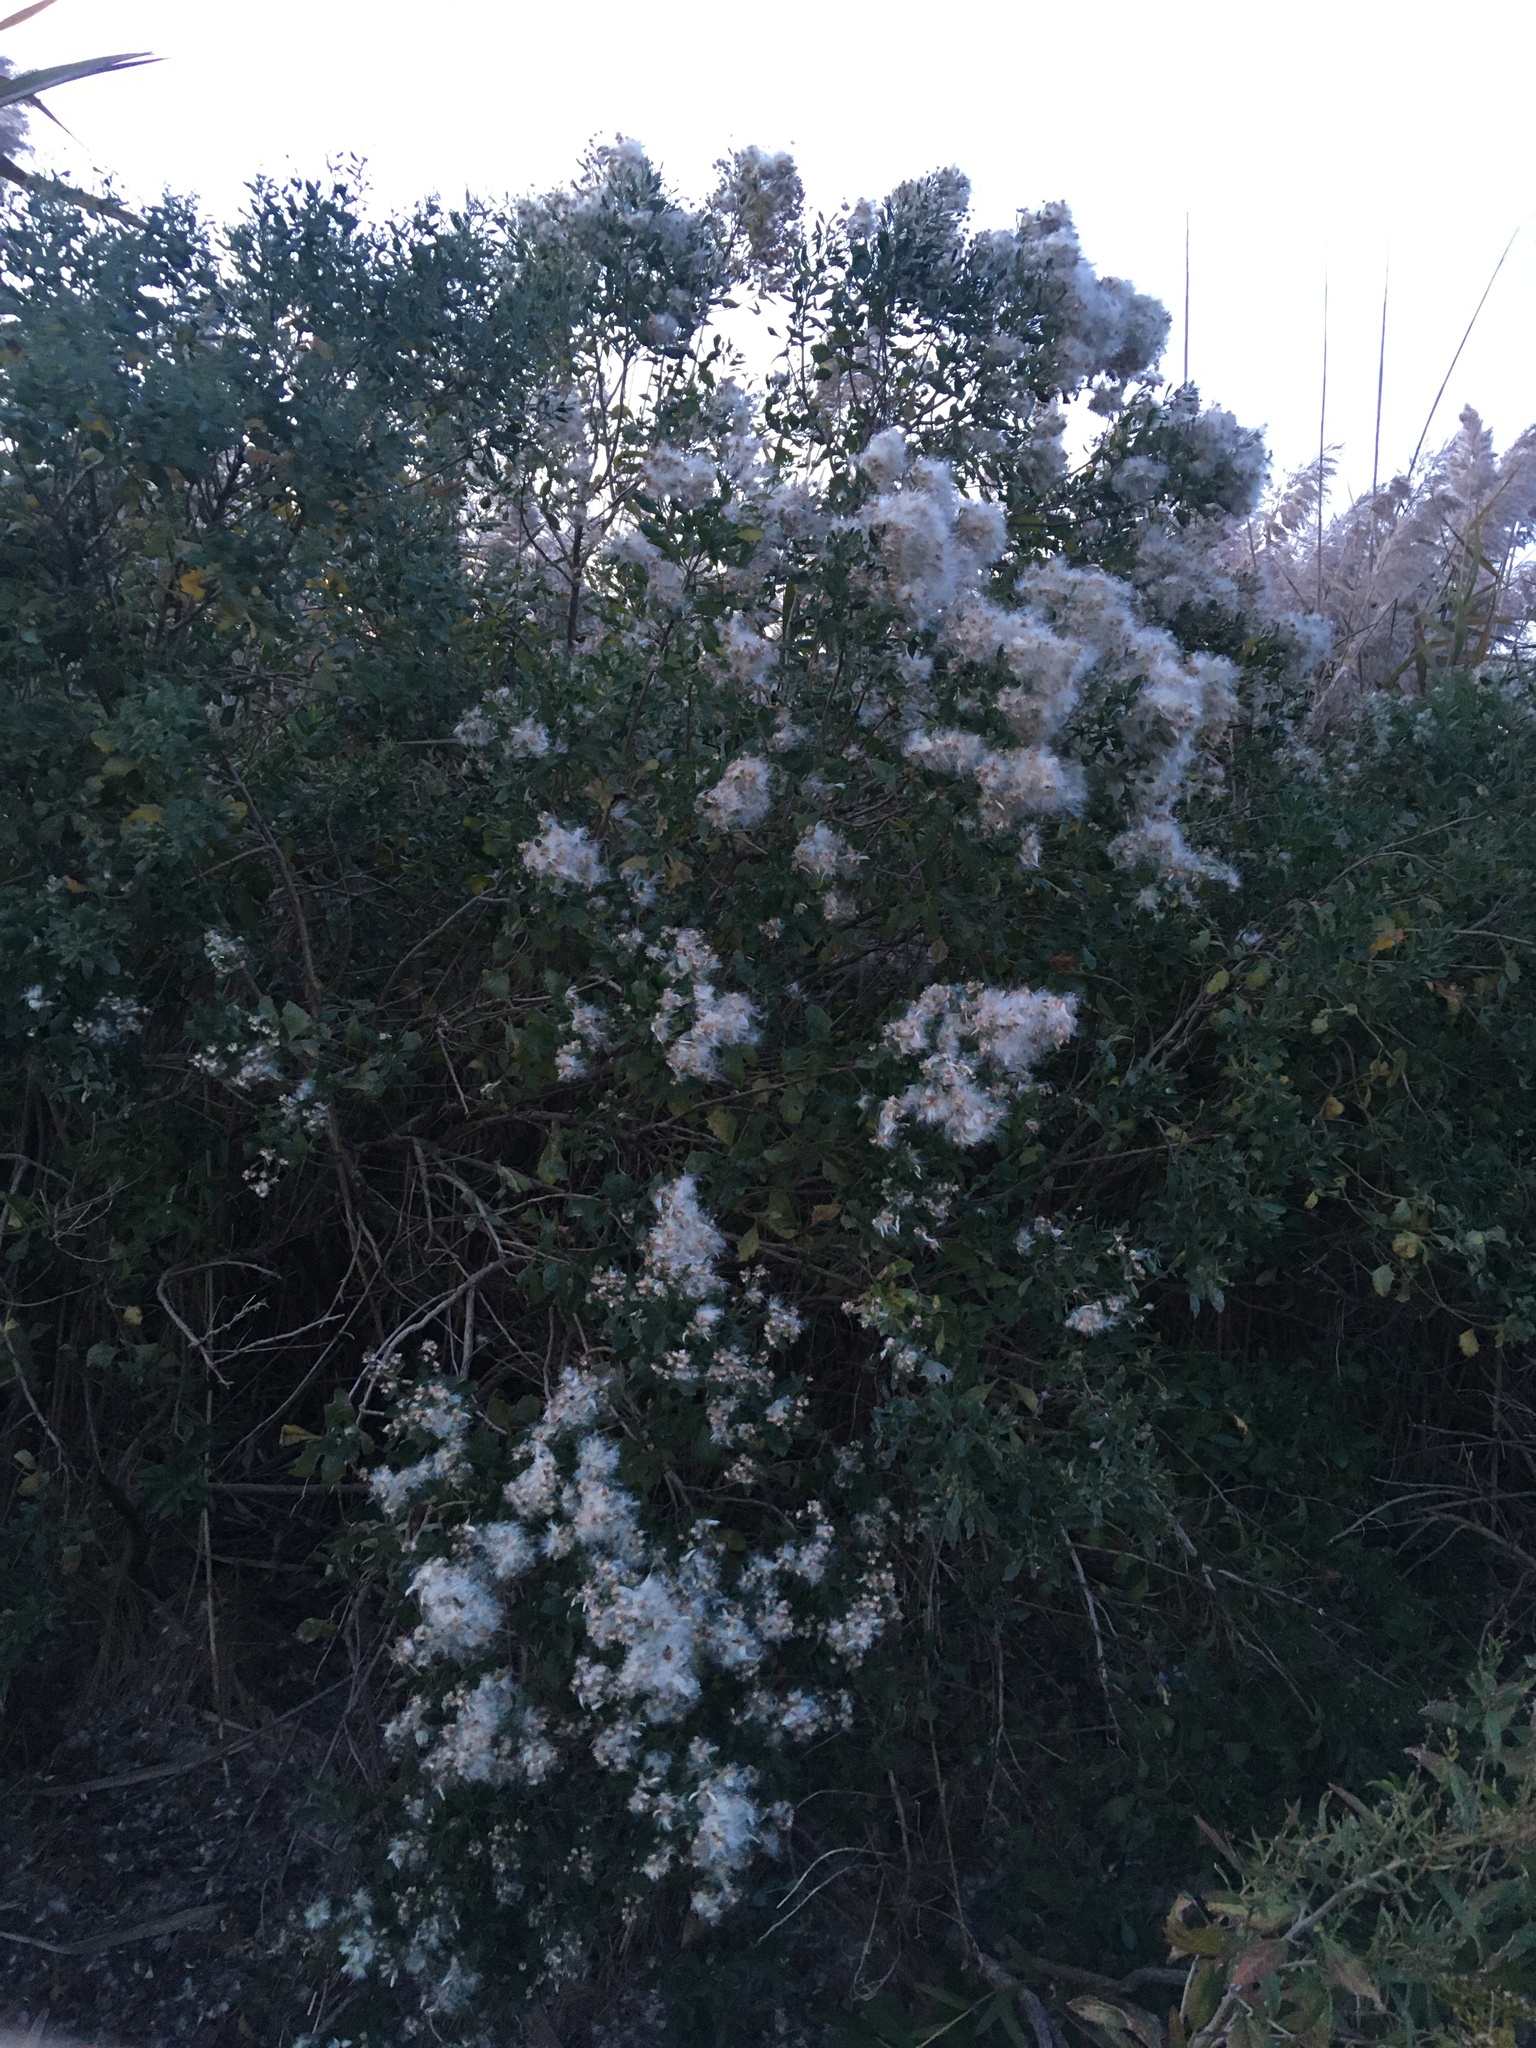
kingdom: Plantae
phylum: Tracheophyta
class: Magnoliopsida
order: Asterales
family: Asteraceae
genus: Baccharis
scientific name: Baccharis halimifolia
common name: Eastern baccharis
